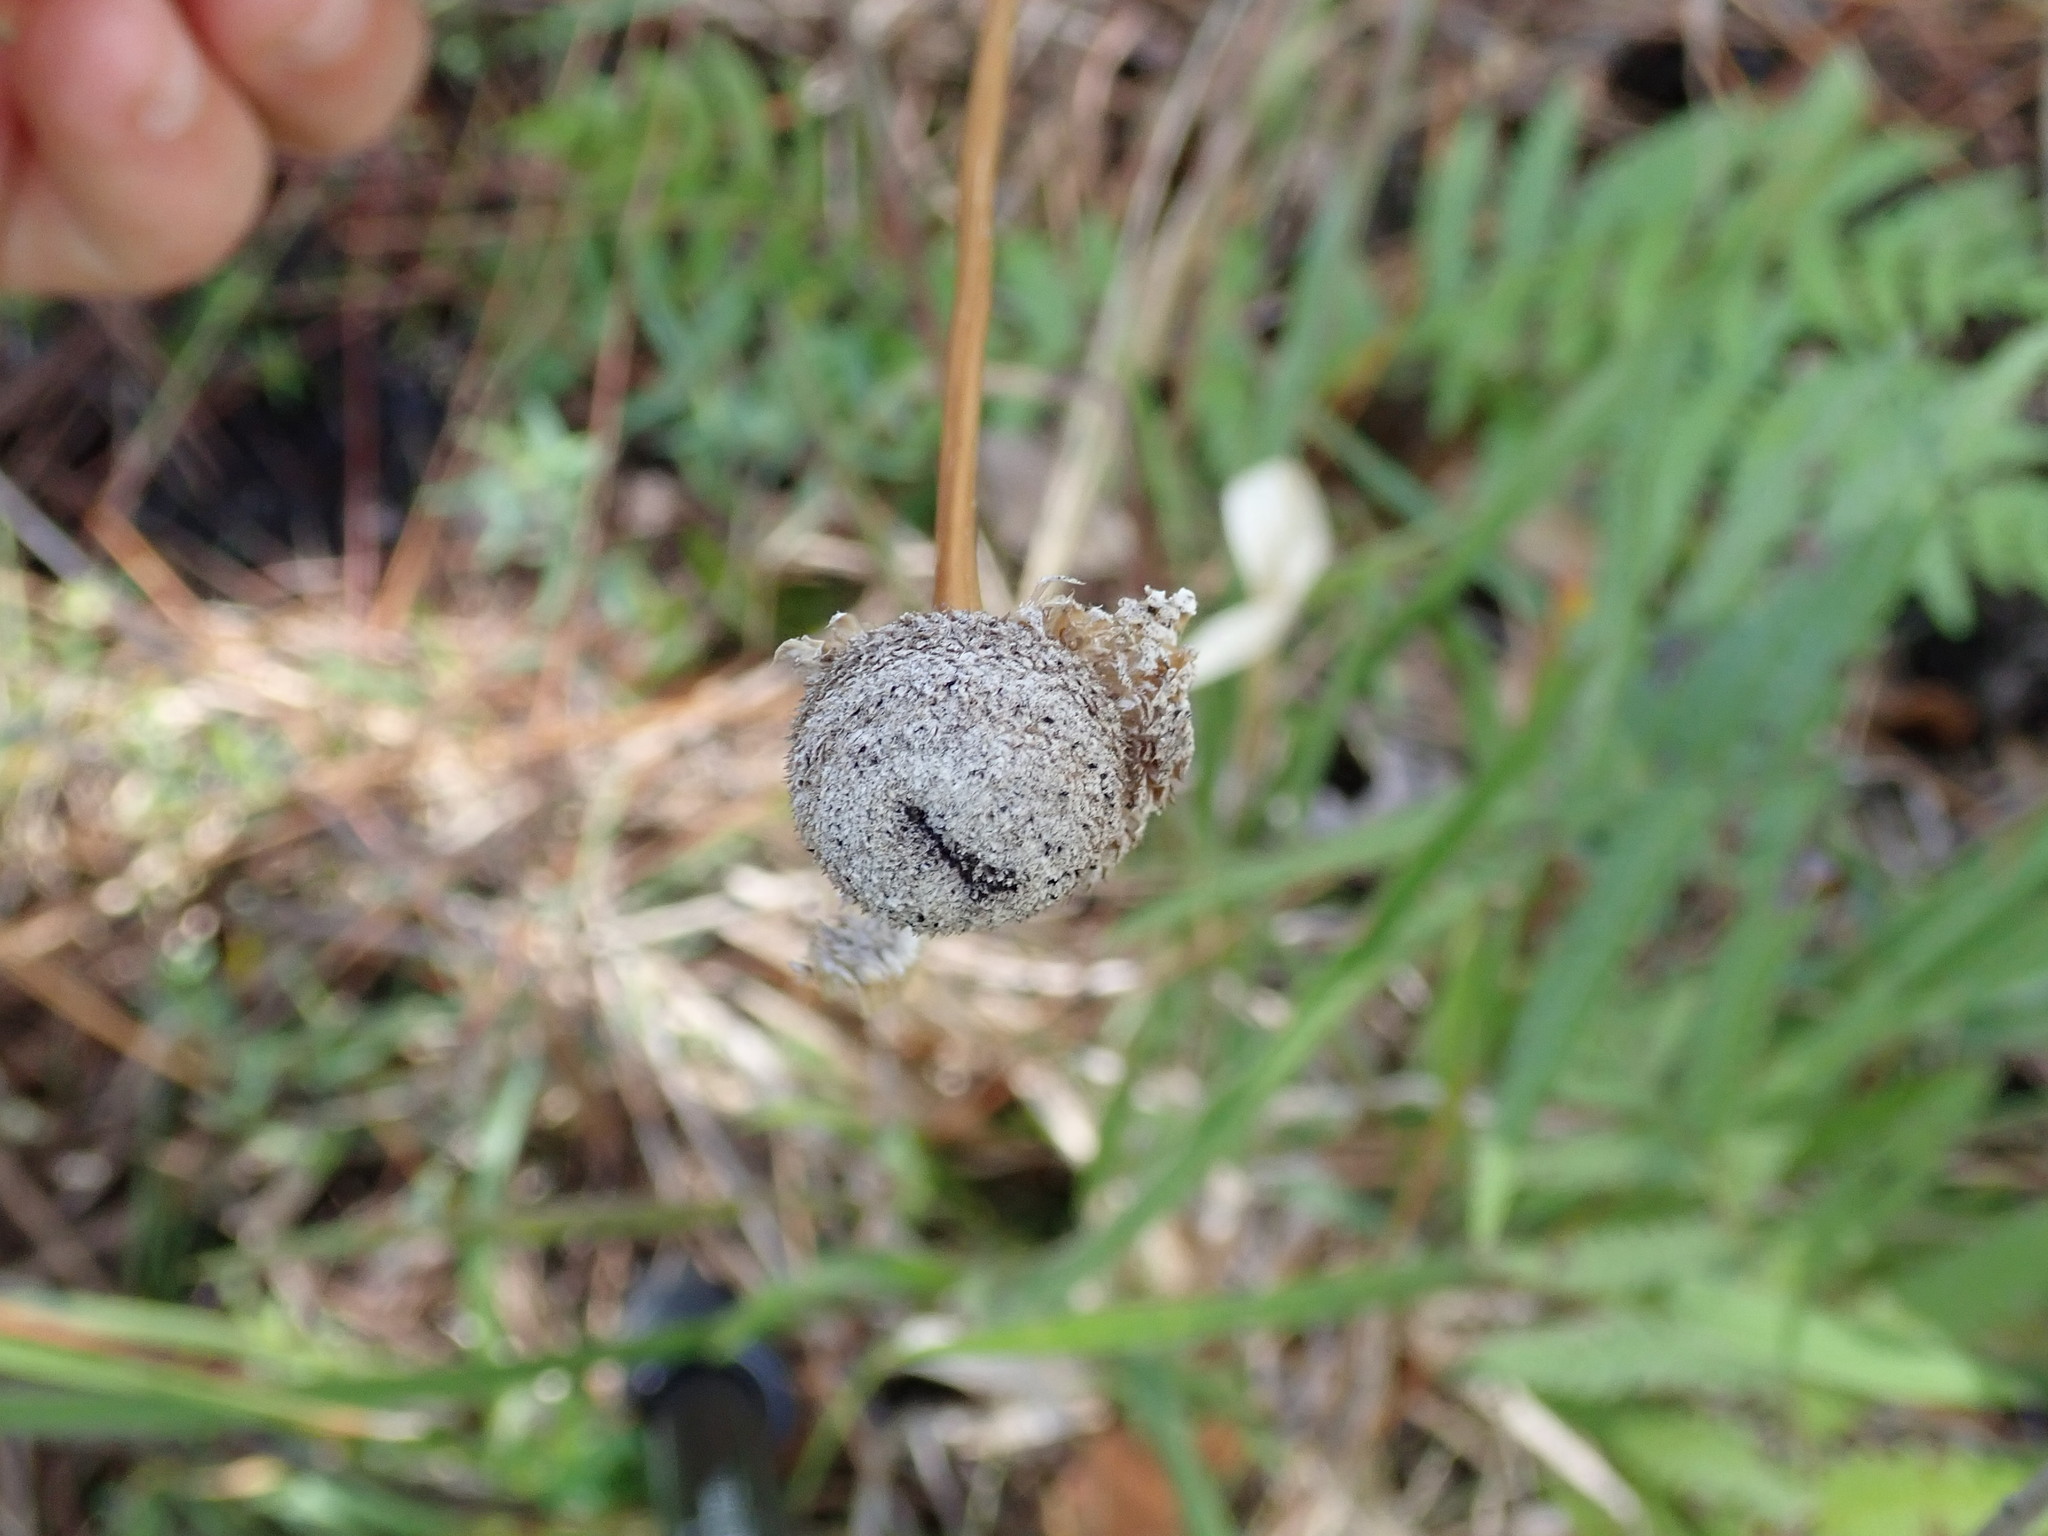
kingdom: Plantae
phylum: Tracheophyta
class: Liliopsida
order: Poales
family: Eriocaulaceae
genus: Eriocaulon
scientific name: Eriocaulon decangulare
